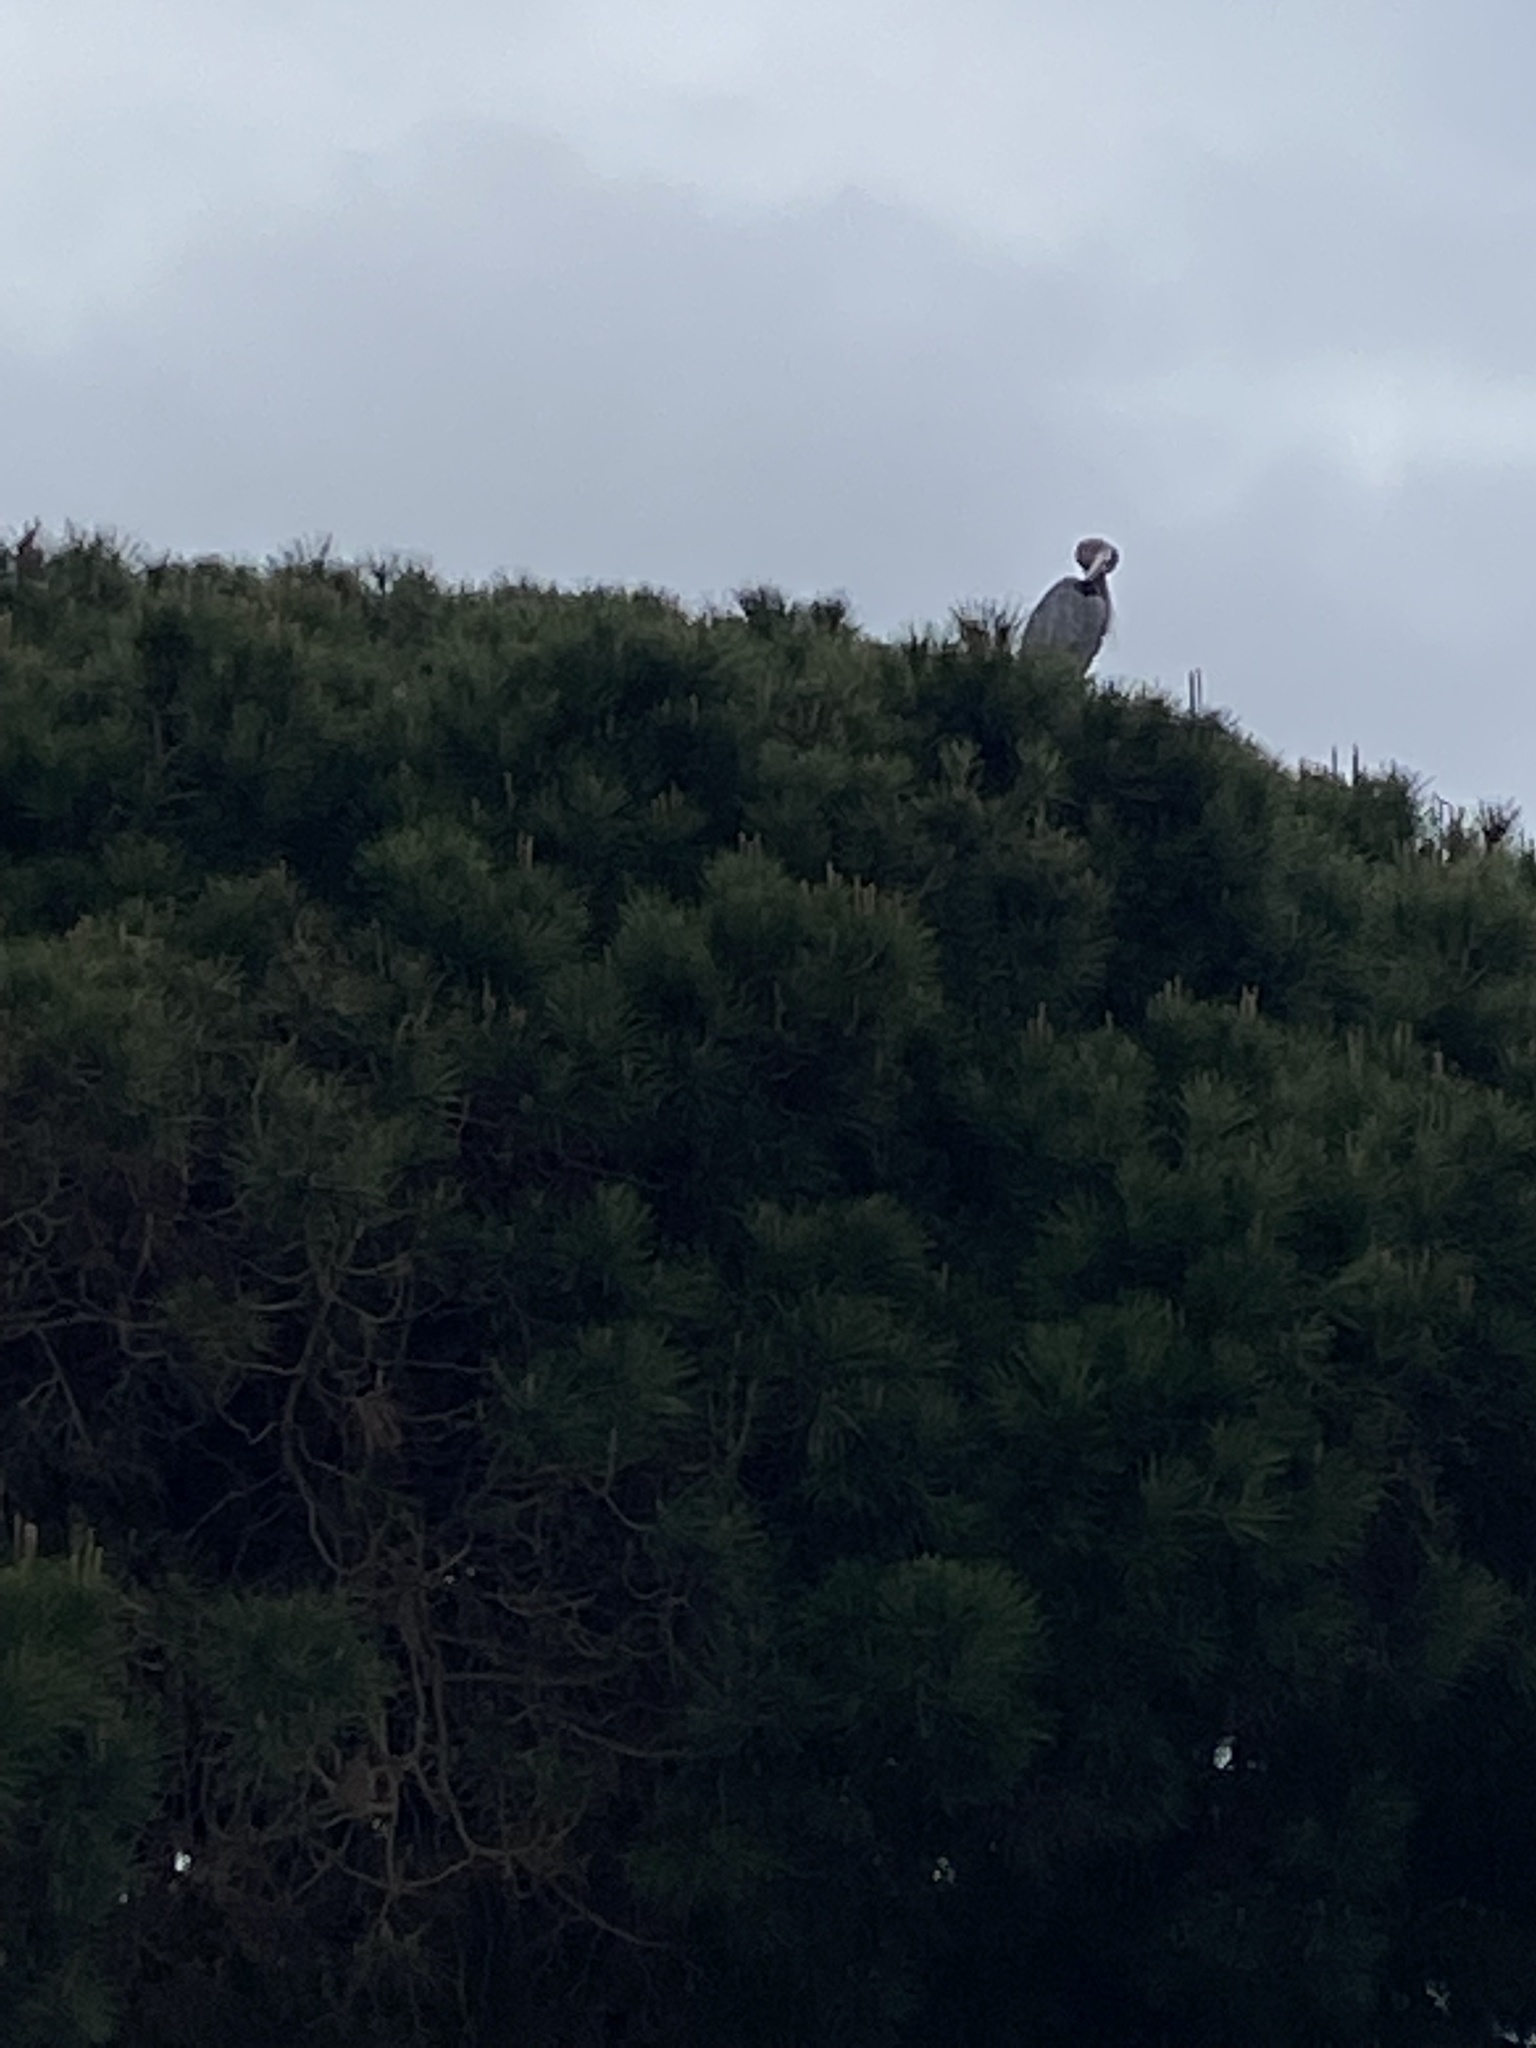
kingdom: Animalia
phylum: Chordata
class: Aves
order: Pelecaniformes
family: Ardeidae
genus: Ardea
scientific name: Ardea herodias
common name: Great blue heron
